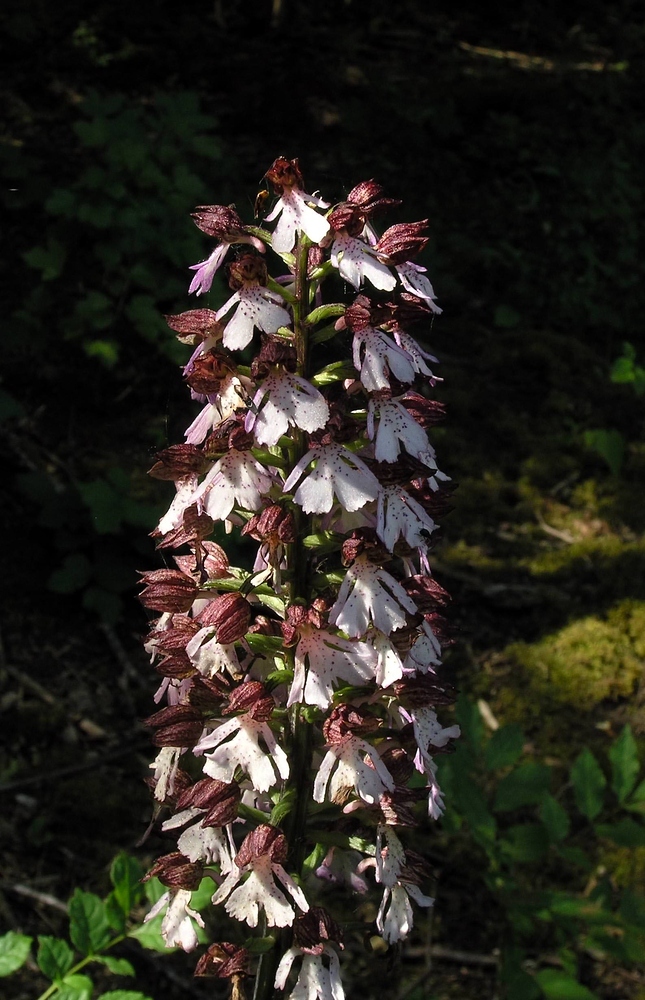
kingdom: Plantae
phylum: Tracheophyta
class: Liliopsida
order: Asparagales
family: Orchidaceae
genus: Orchis
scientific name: Orchis purpurea
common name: Lady orchid
